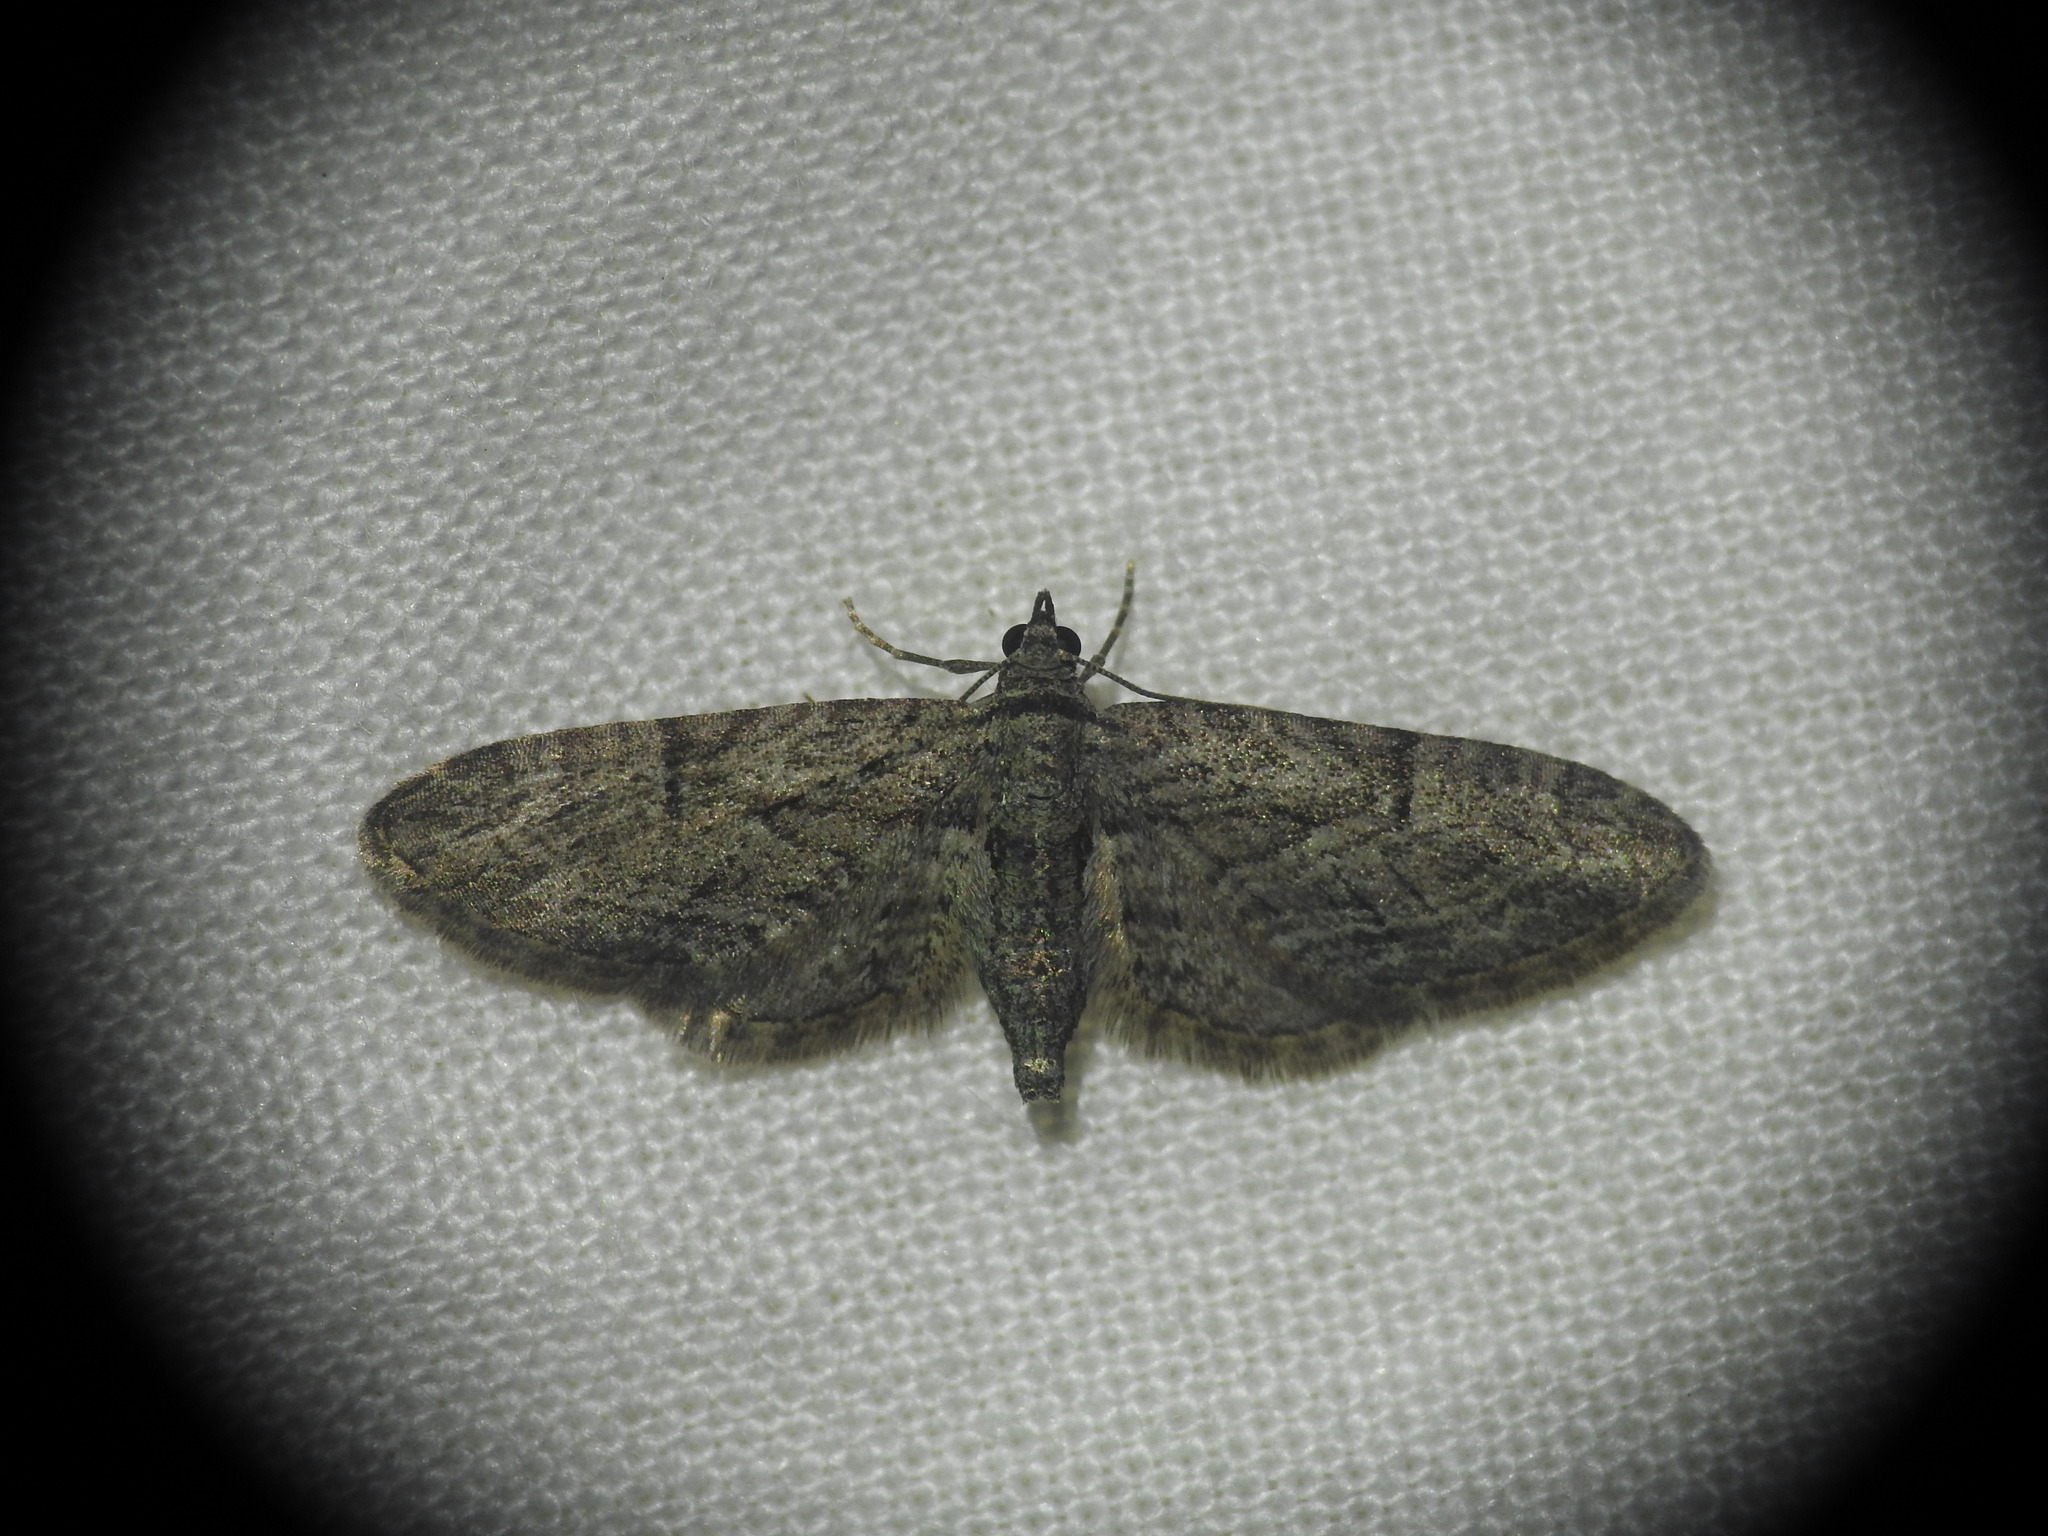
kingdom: Animalia
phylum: Arthropoda
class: Insecta
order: Lepidoptera
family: Geometridae
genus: Eupithecia
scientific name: Eupithecia oxycedrata
